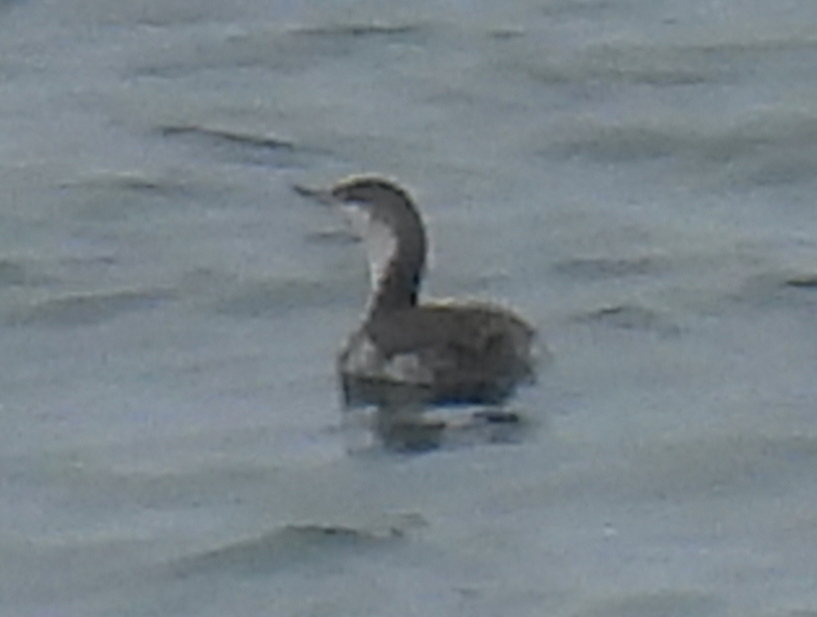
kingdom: Animalia
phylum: Chordata
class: Aves
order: Gaviiformes
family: Gaviidae
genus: Gavia
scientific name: Gavia stellata
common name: Red-throated loon
